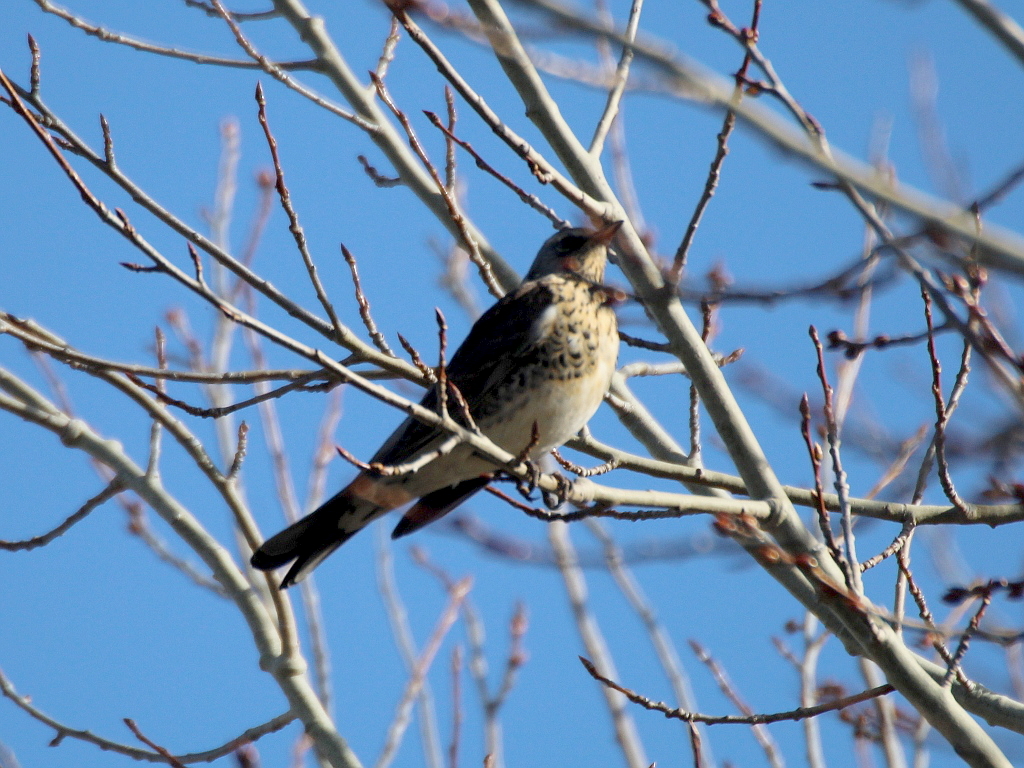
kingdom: Animalia
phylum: Chordata
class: Aves
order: Passeriformes
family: Turdidae
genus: Turdus
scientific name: Turdus pilaris
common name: Fieldfare
